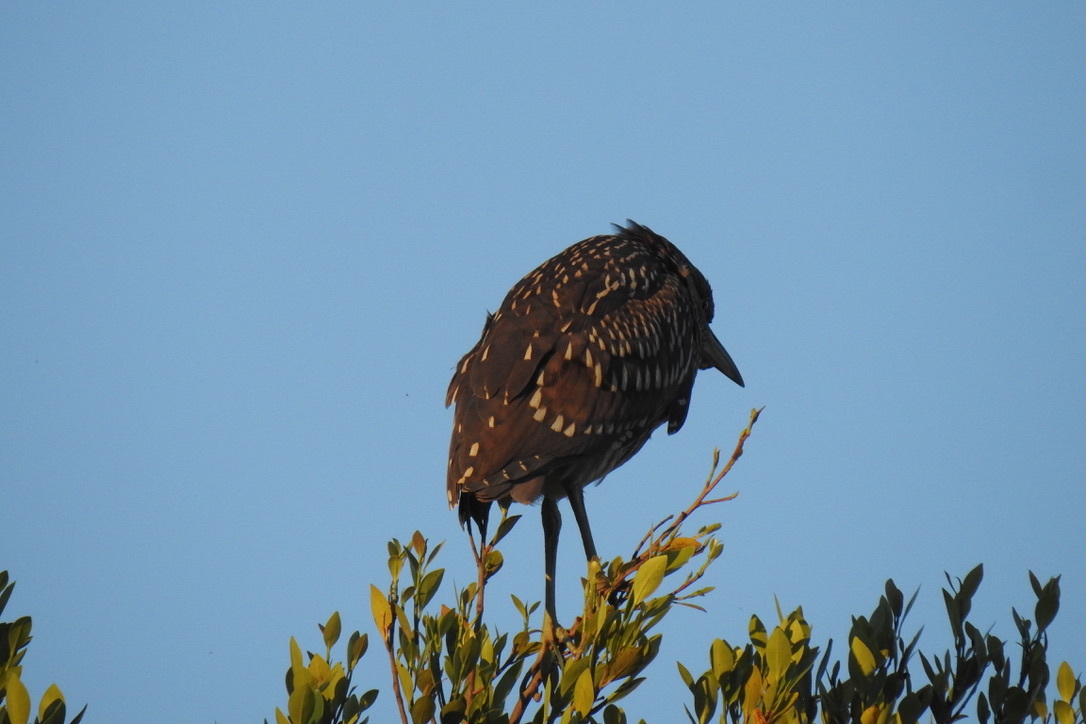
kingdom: Animalia
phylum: Chordata
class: Aves
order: Pelecaniformes
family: Ardeidae
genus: Nycticorax
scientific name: Nycticorax nycticorax
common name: Black-crowned night heron
